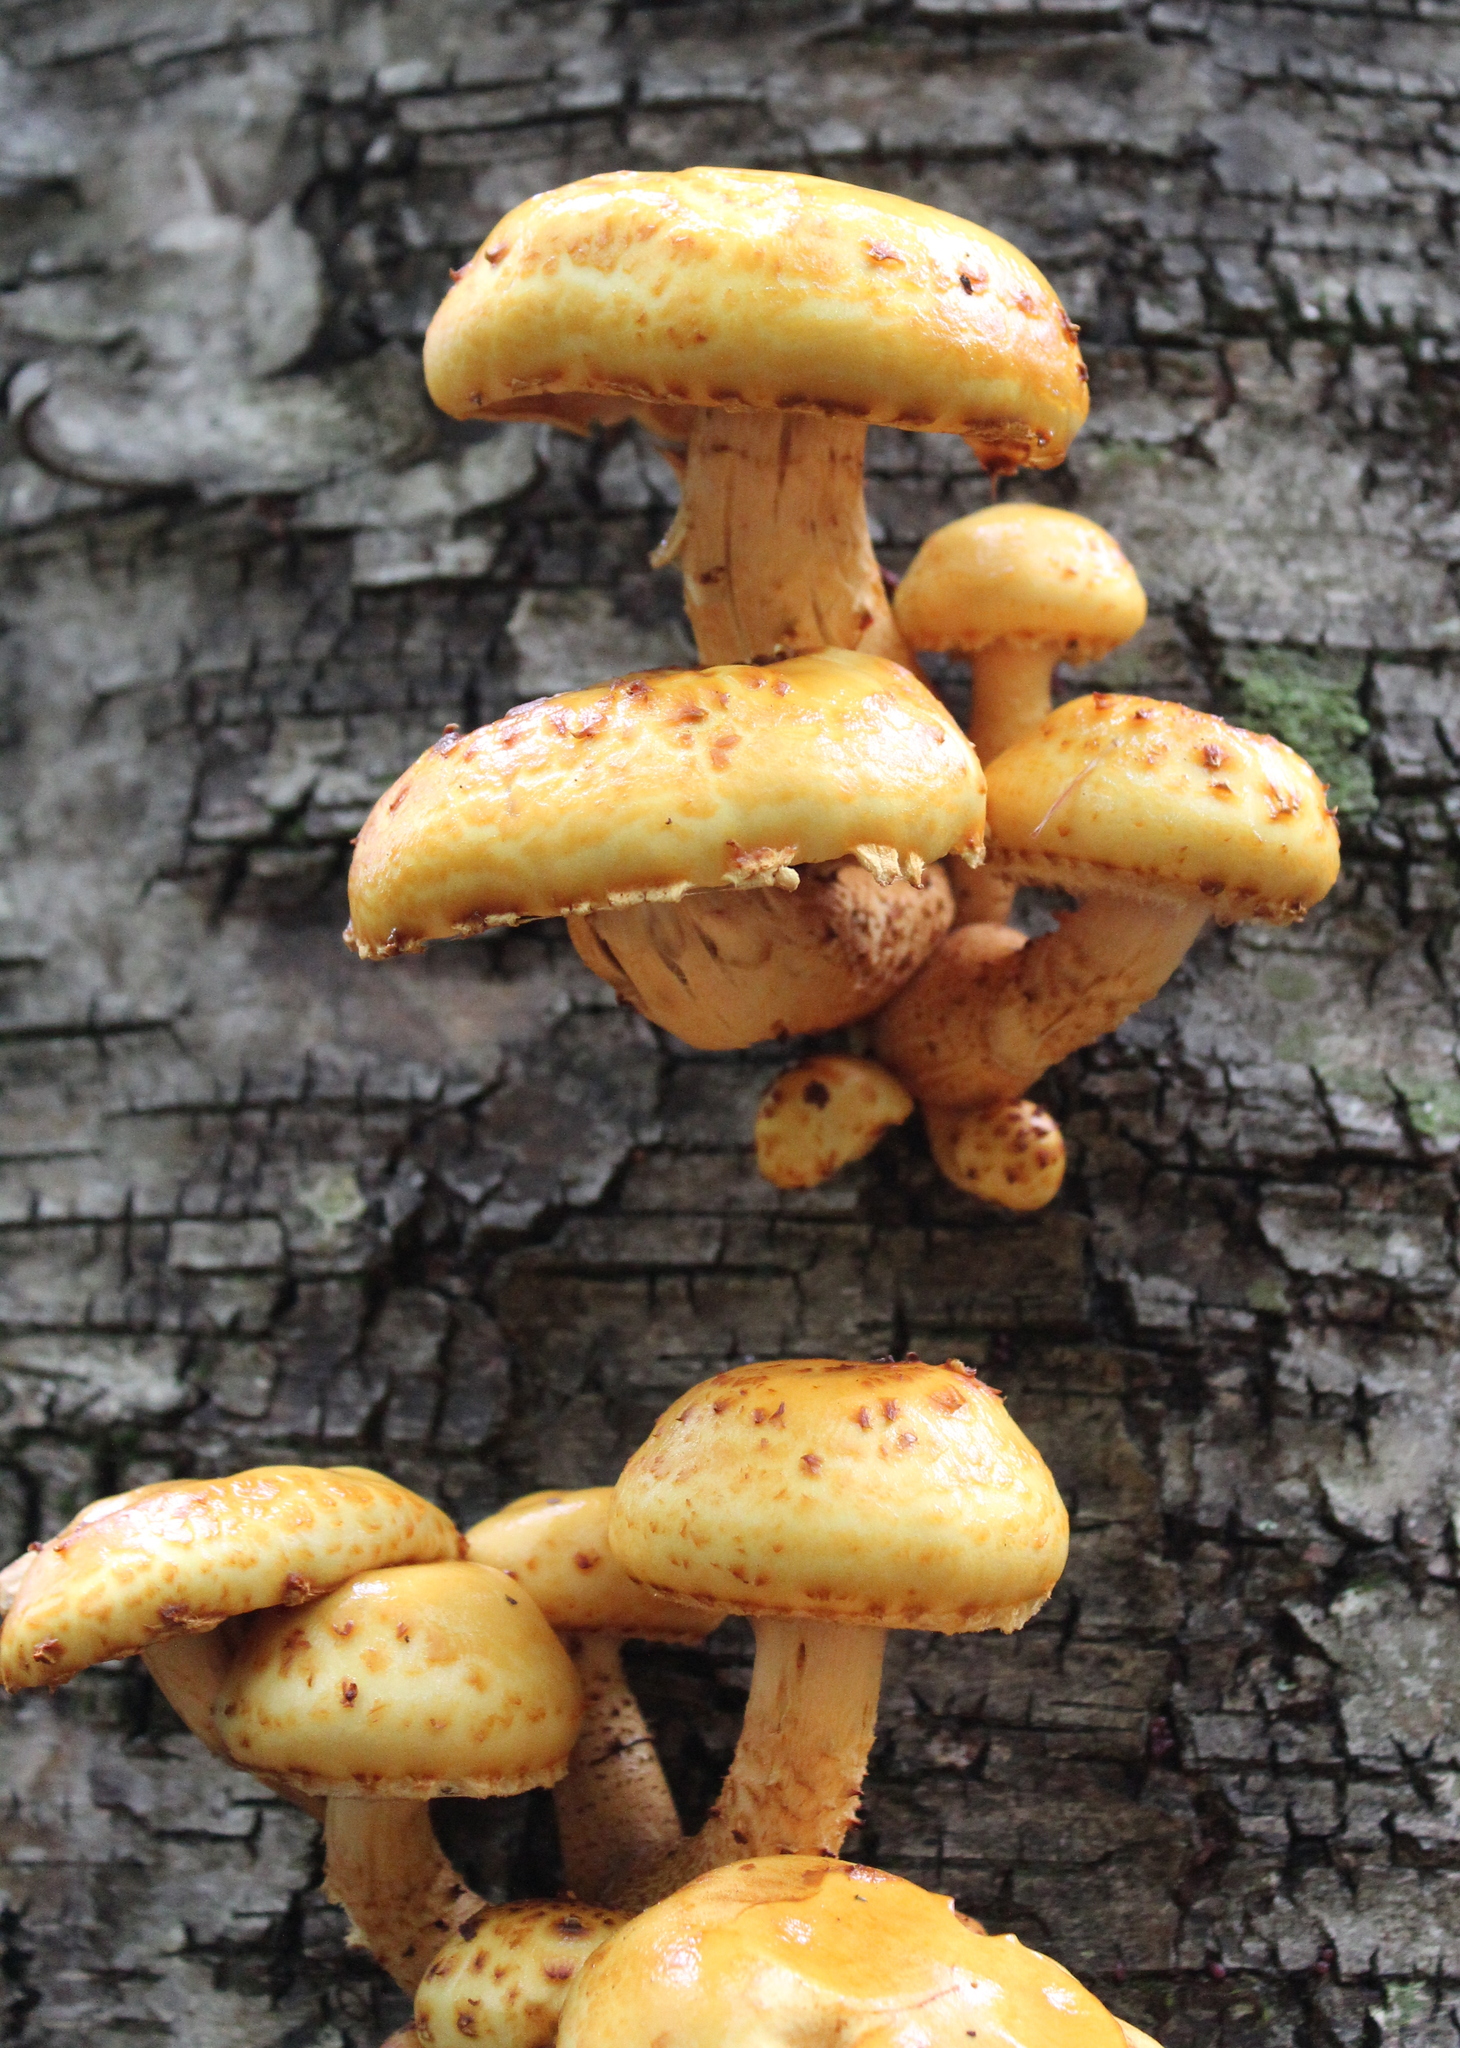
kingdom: Fungi
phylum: Basidiomycota
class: Agaricomycetes
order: Agaricales
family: Strophariaceae
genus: Pholiota
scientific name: Pholiota aurivella
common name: Golden scalycap
